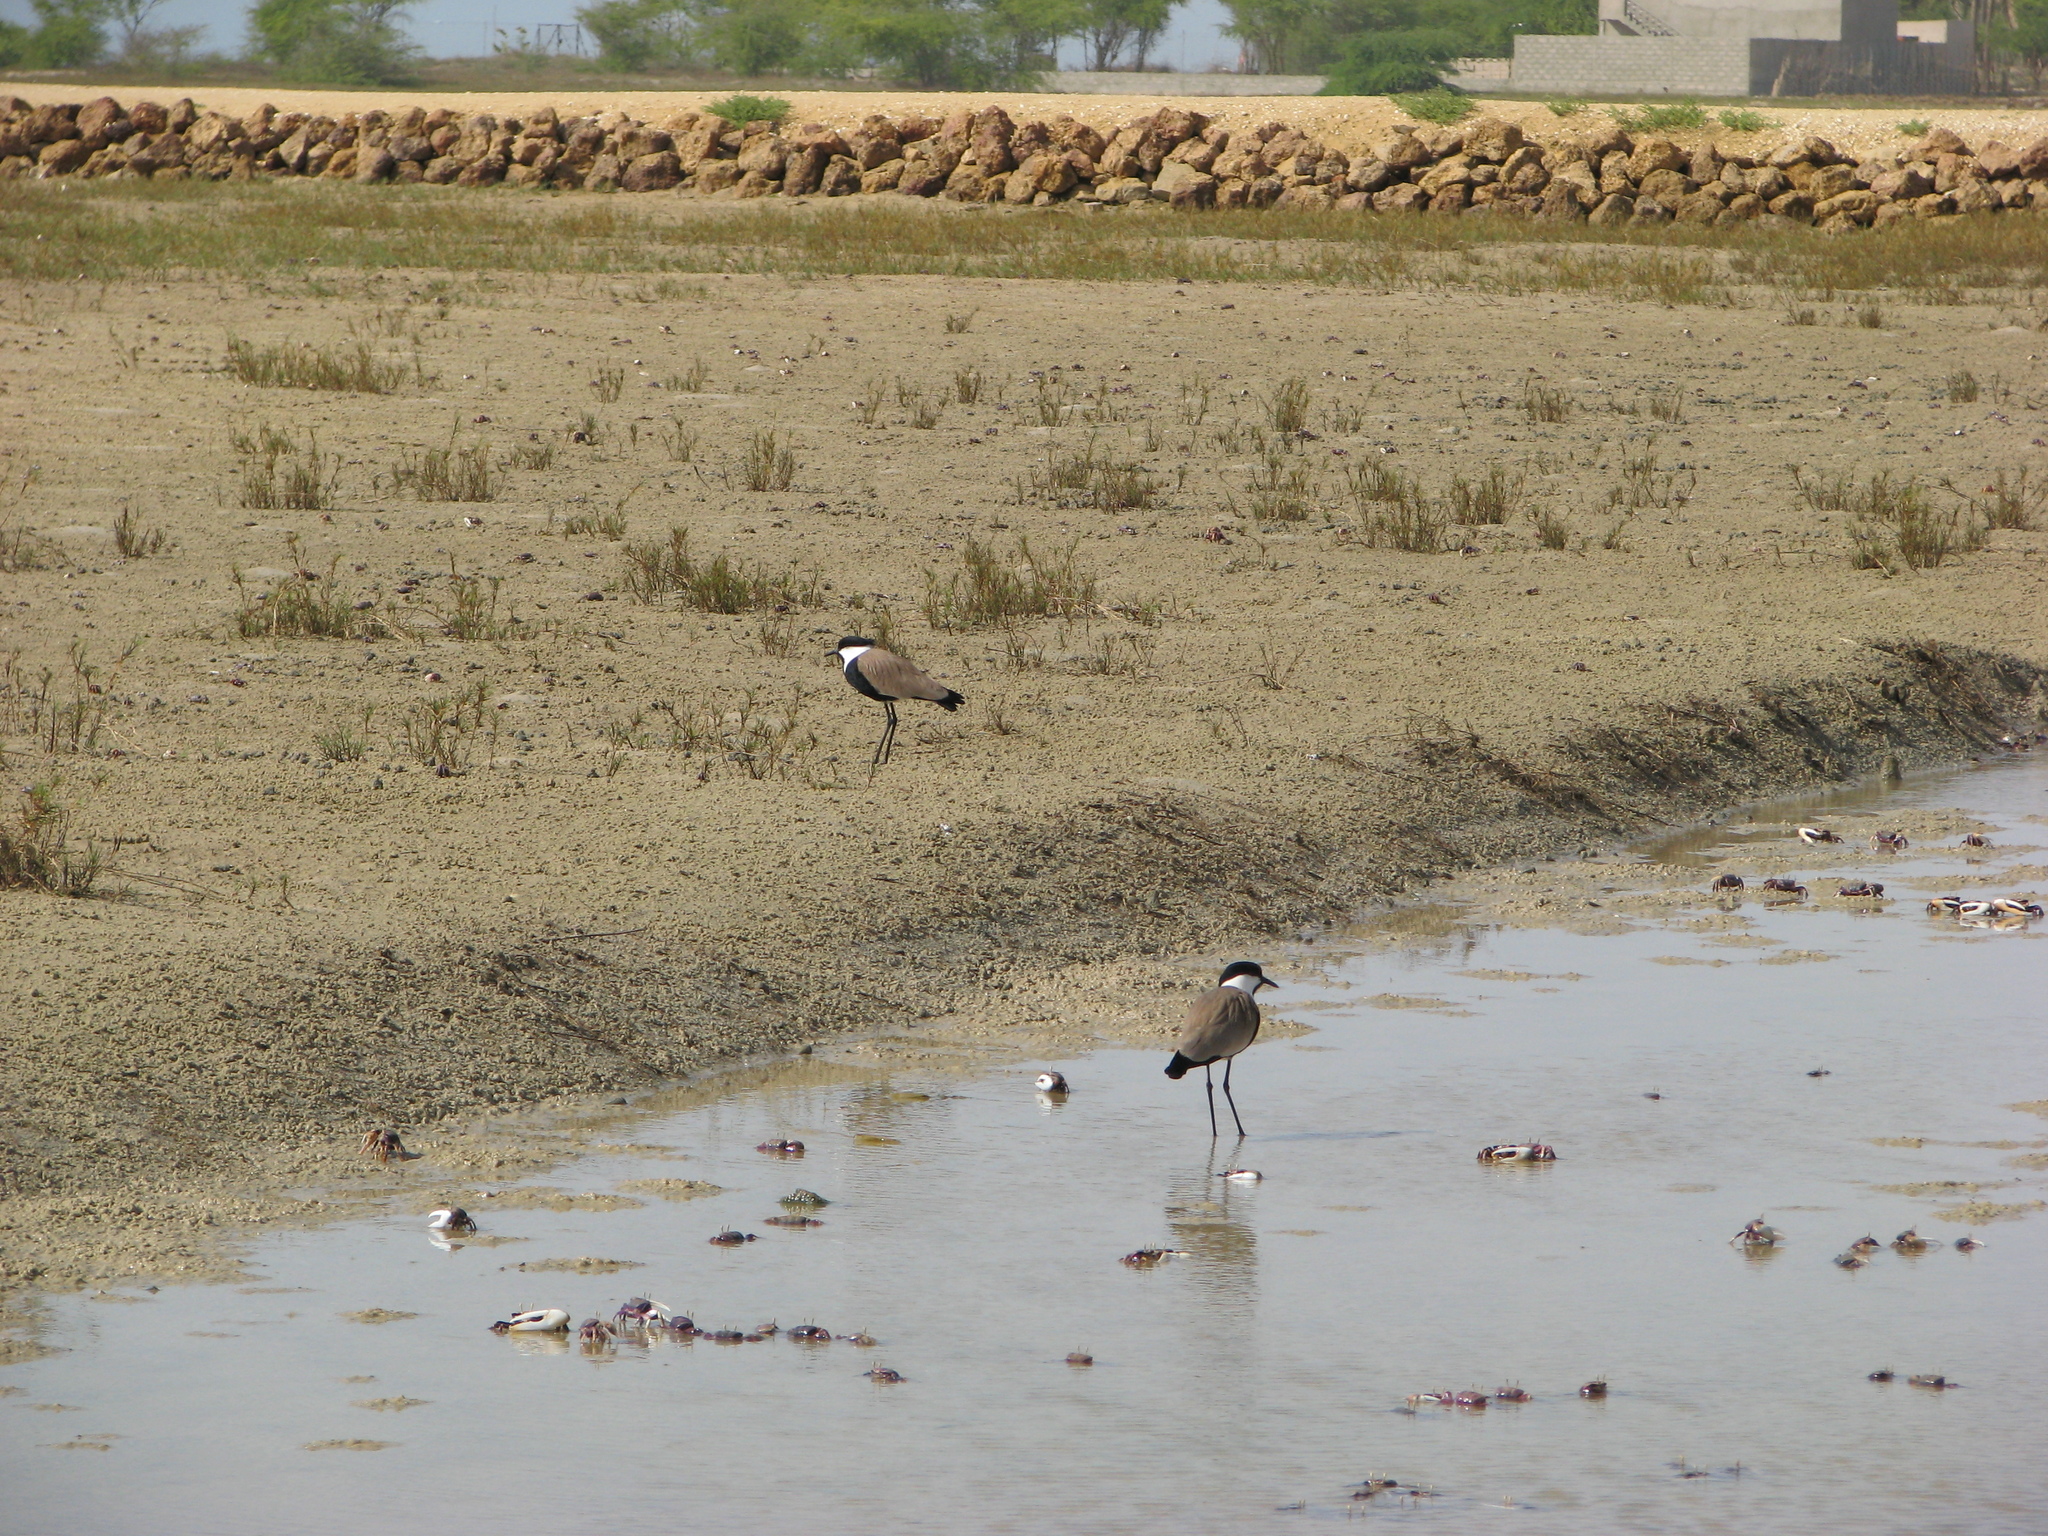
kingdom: Animalia
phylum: Chordata
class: Aves
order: Charadriiformes
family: Charadriidae
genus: Vanellus
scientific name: Vanellus spinosus
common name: Spur-winged lapwing
